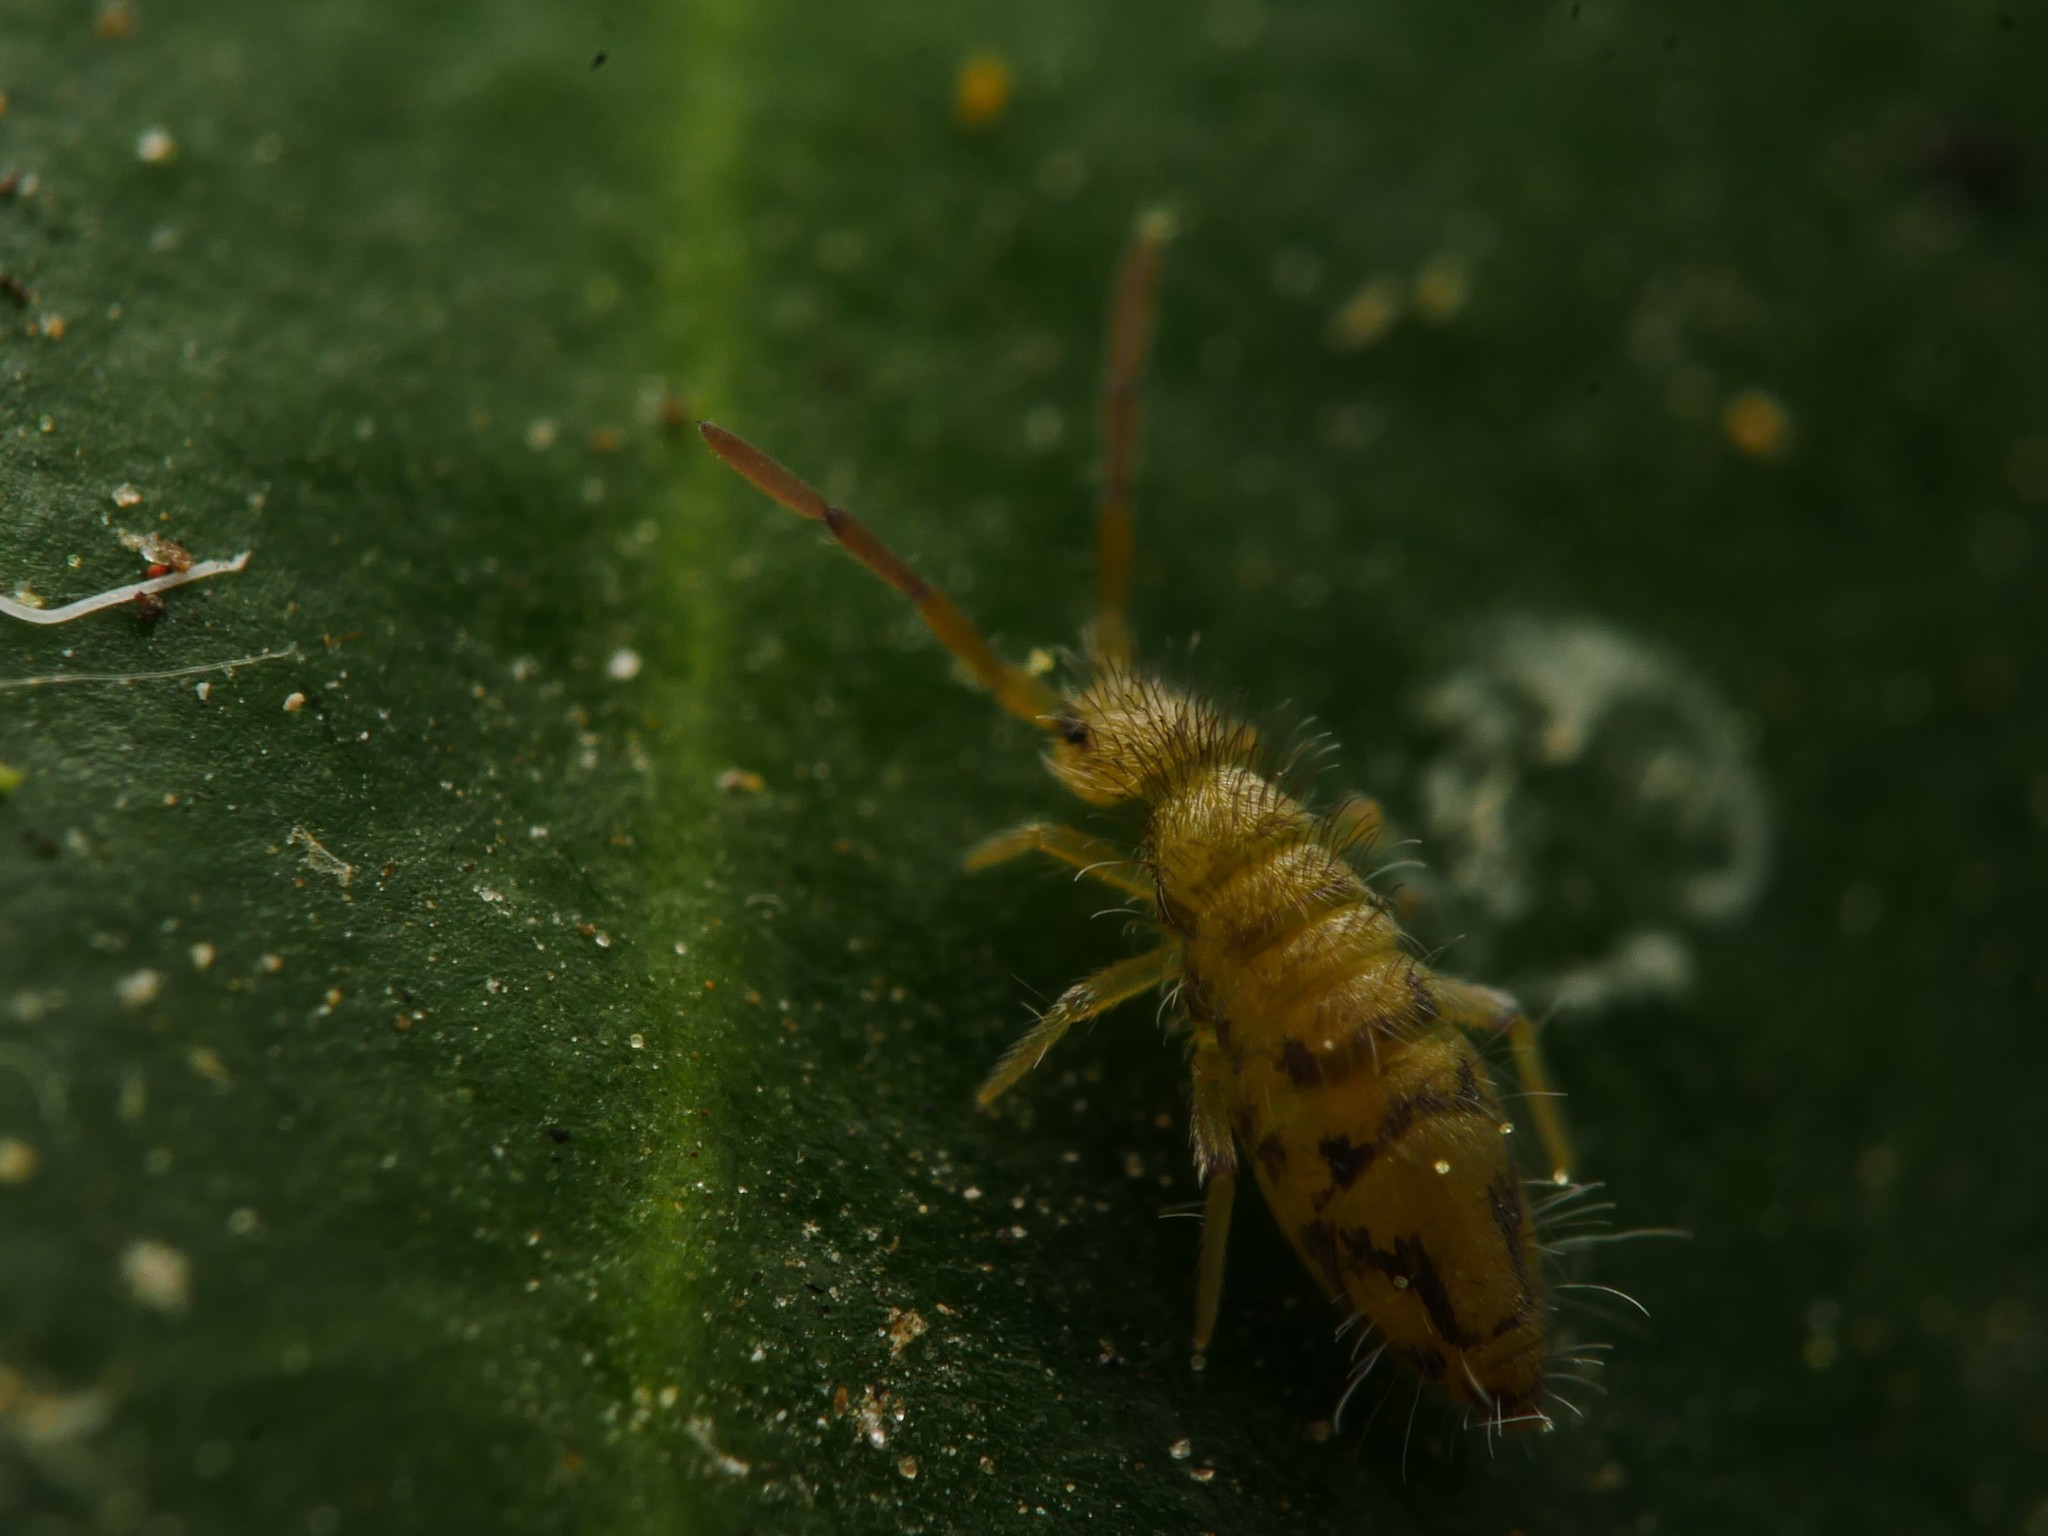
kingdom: Animalia
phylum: Arthropoda
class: Collembola
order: Entomobryomorpha
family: Entomobryidae
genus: Entomobrya
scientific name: Entomobrya nivalis
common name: Cosmopolitan springtail
